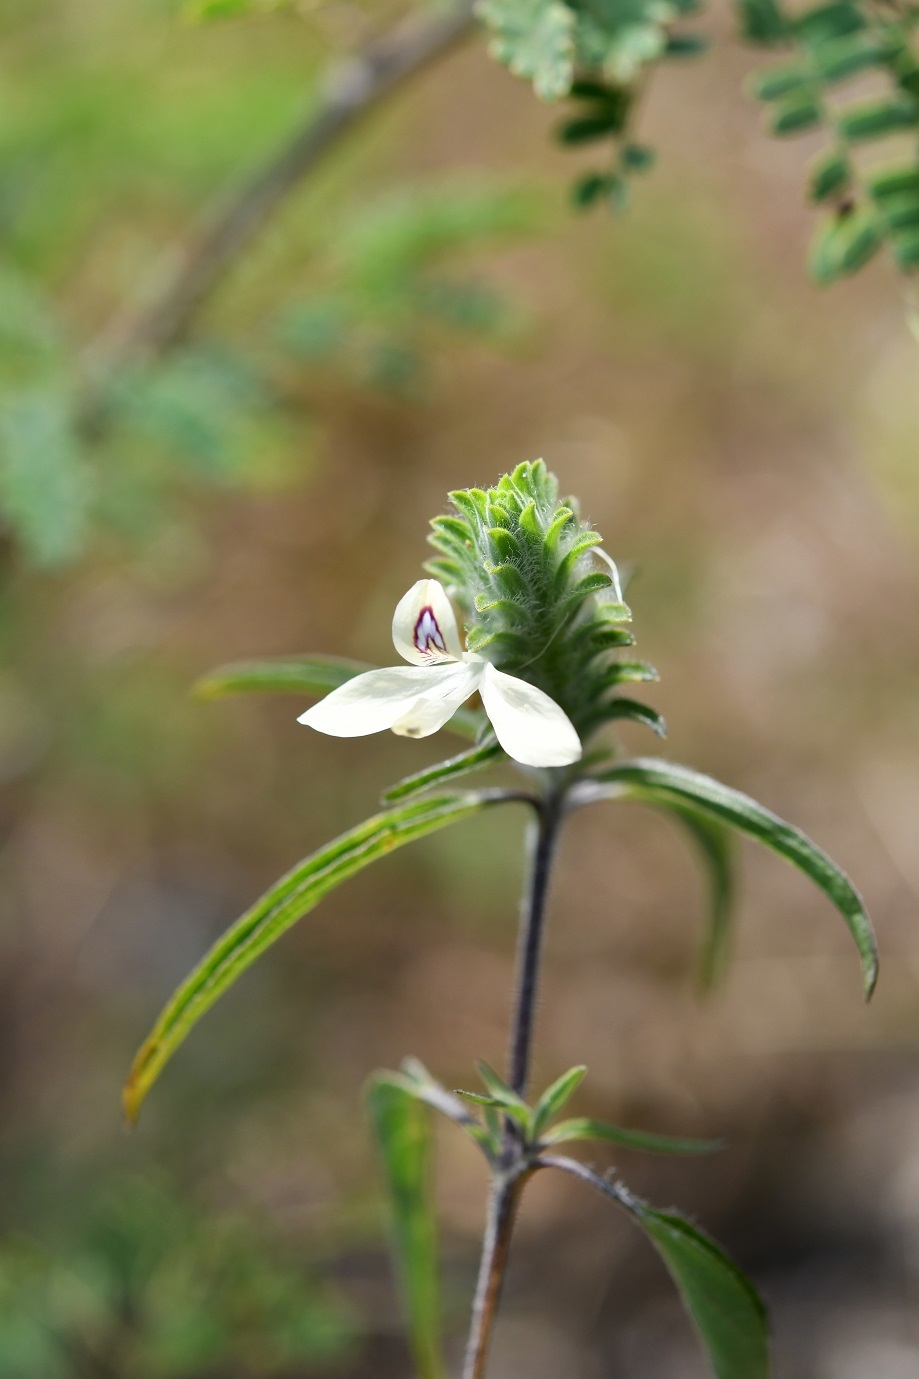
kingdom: Plantae
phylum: Tracheophyta
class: Magnoliopsida
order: Lamiales
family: Acanthaceae
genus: Tetramerium
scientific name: Tetramerium nervosum
